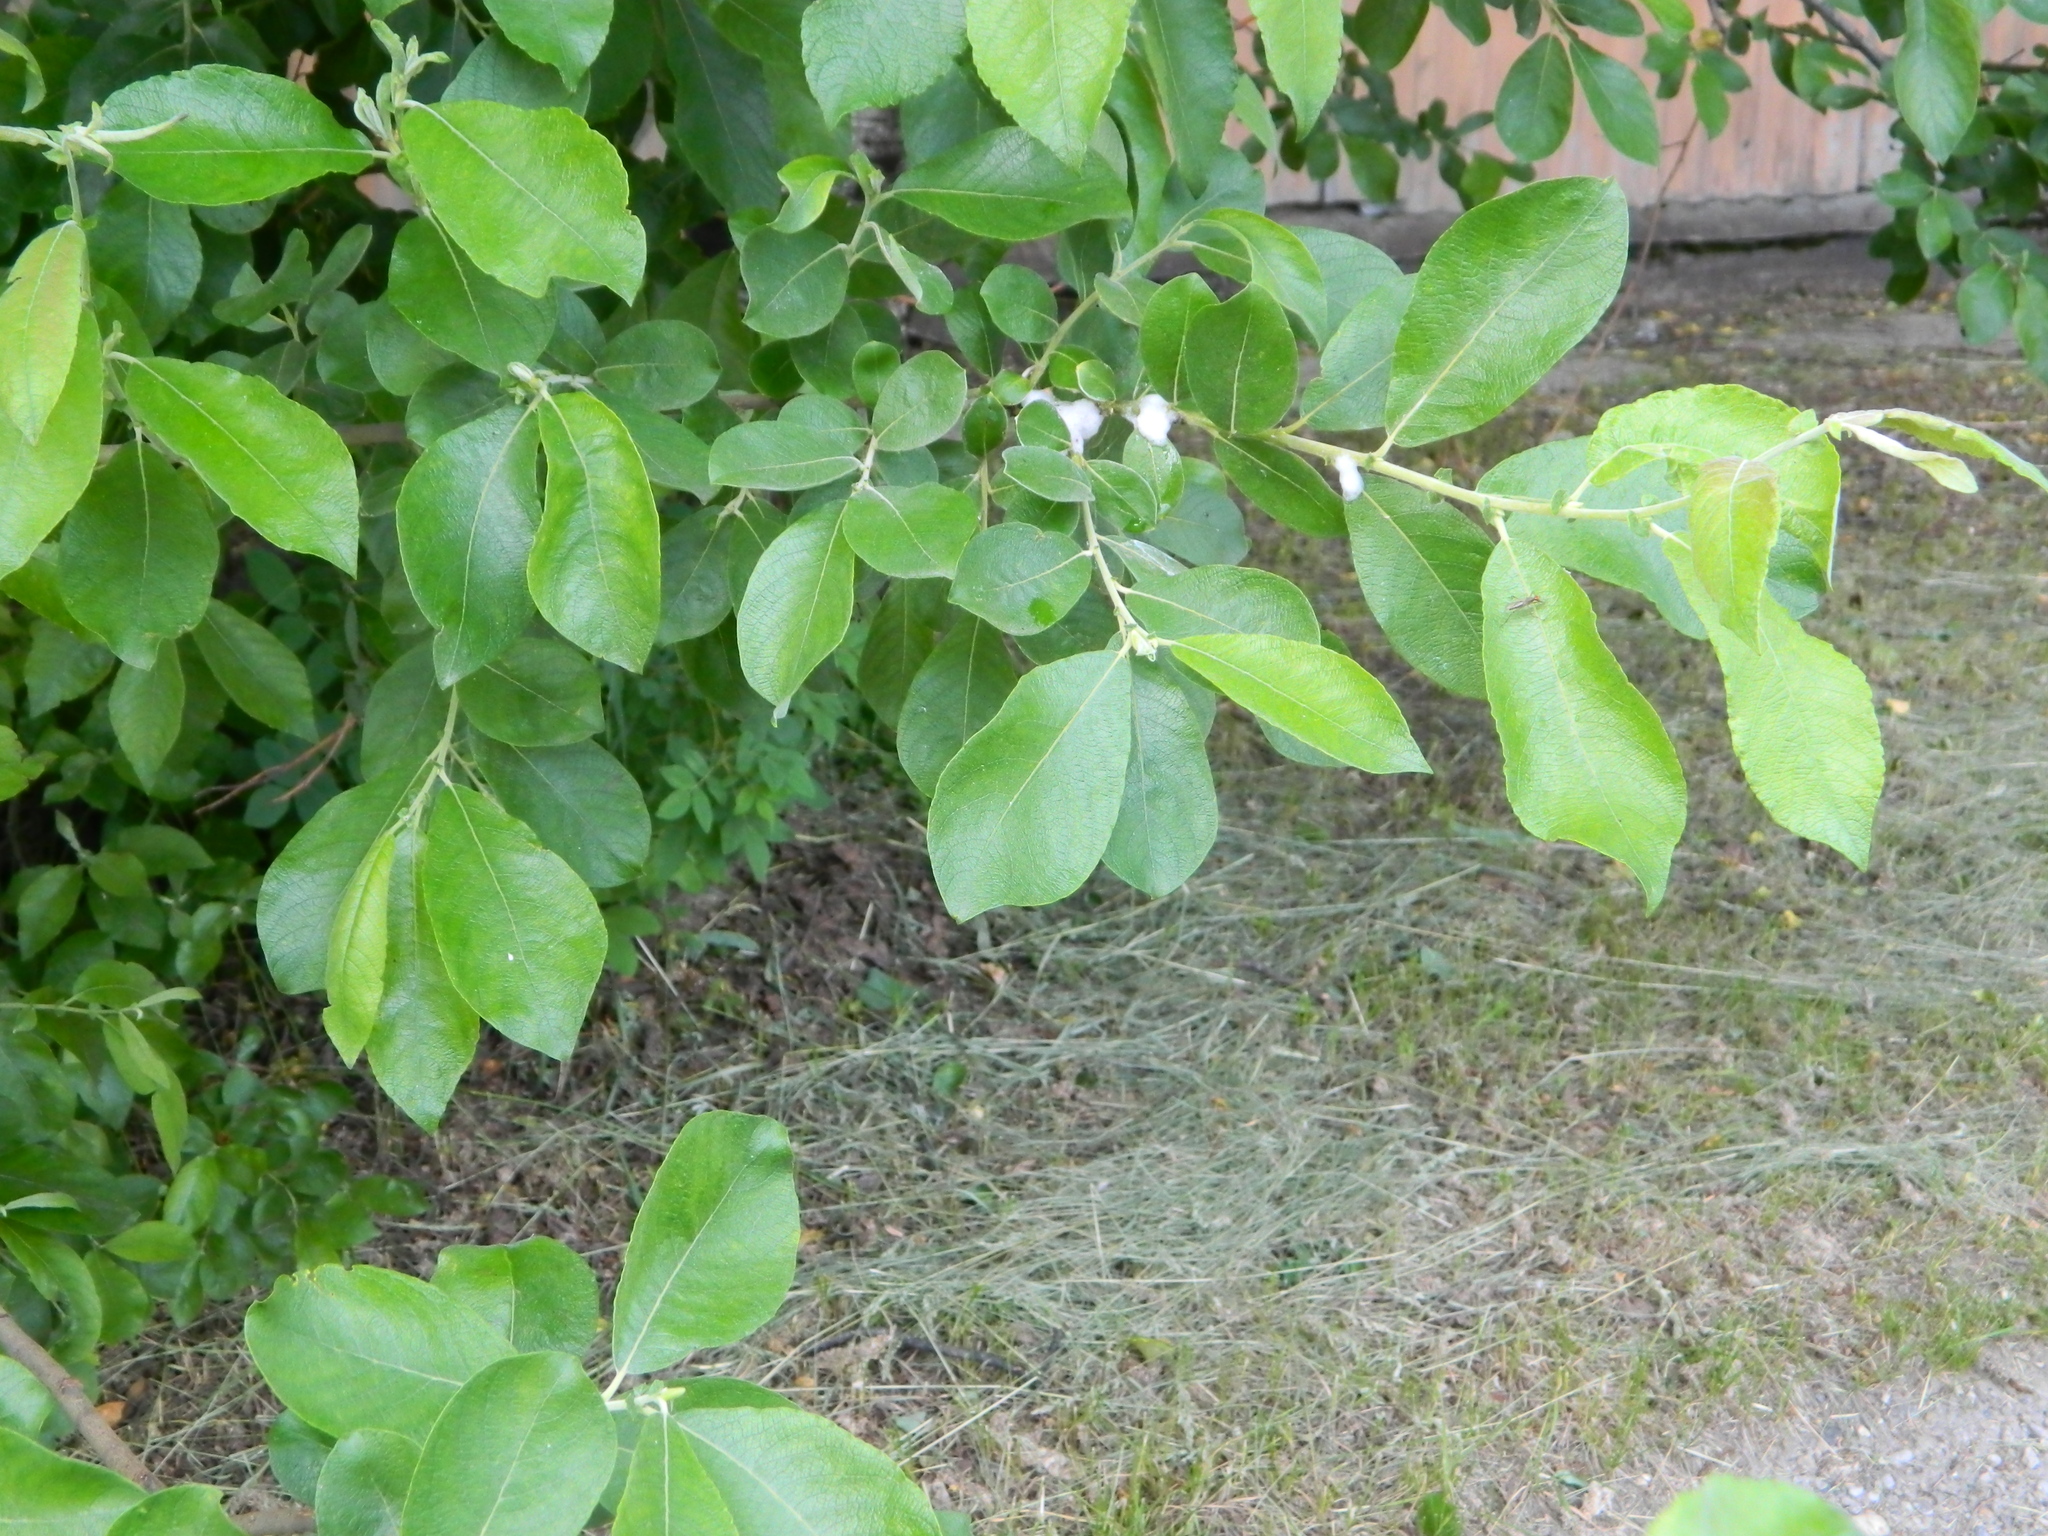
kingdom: Plantae
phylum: Tracheophyta
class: Magnoliopsida
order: Malpighiales
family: Salicaceae
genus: Salix
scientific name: Salix caprea
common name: Goat willow
